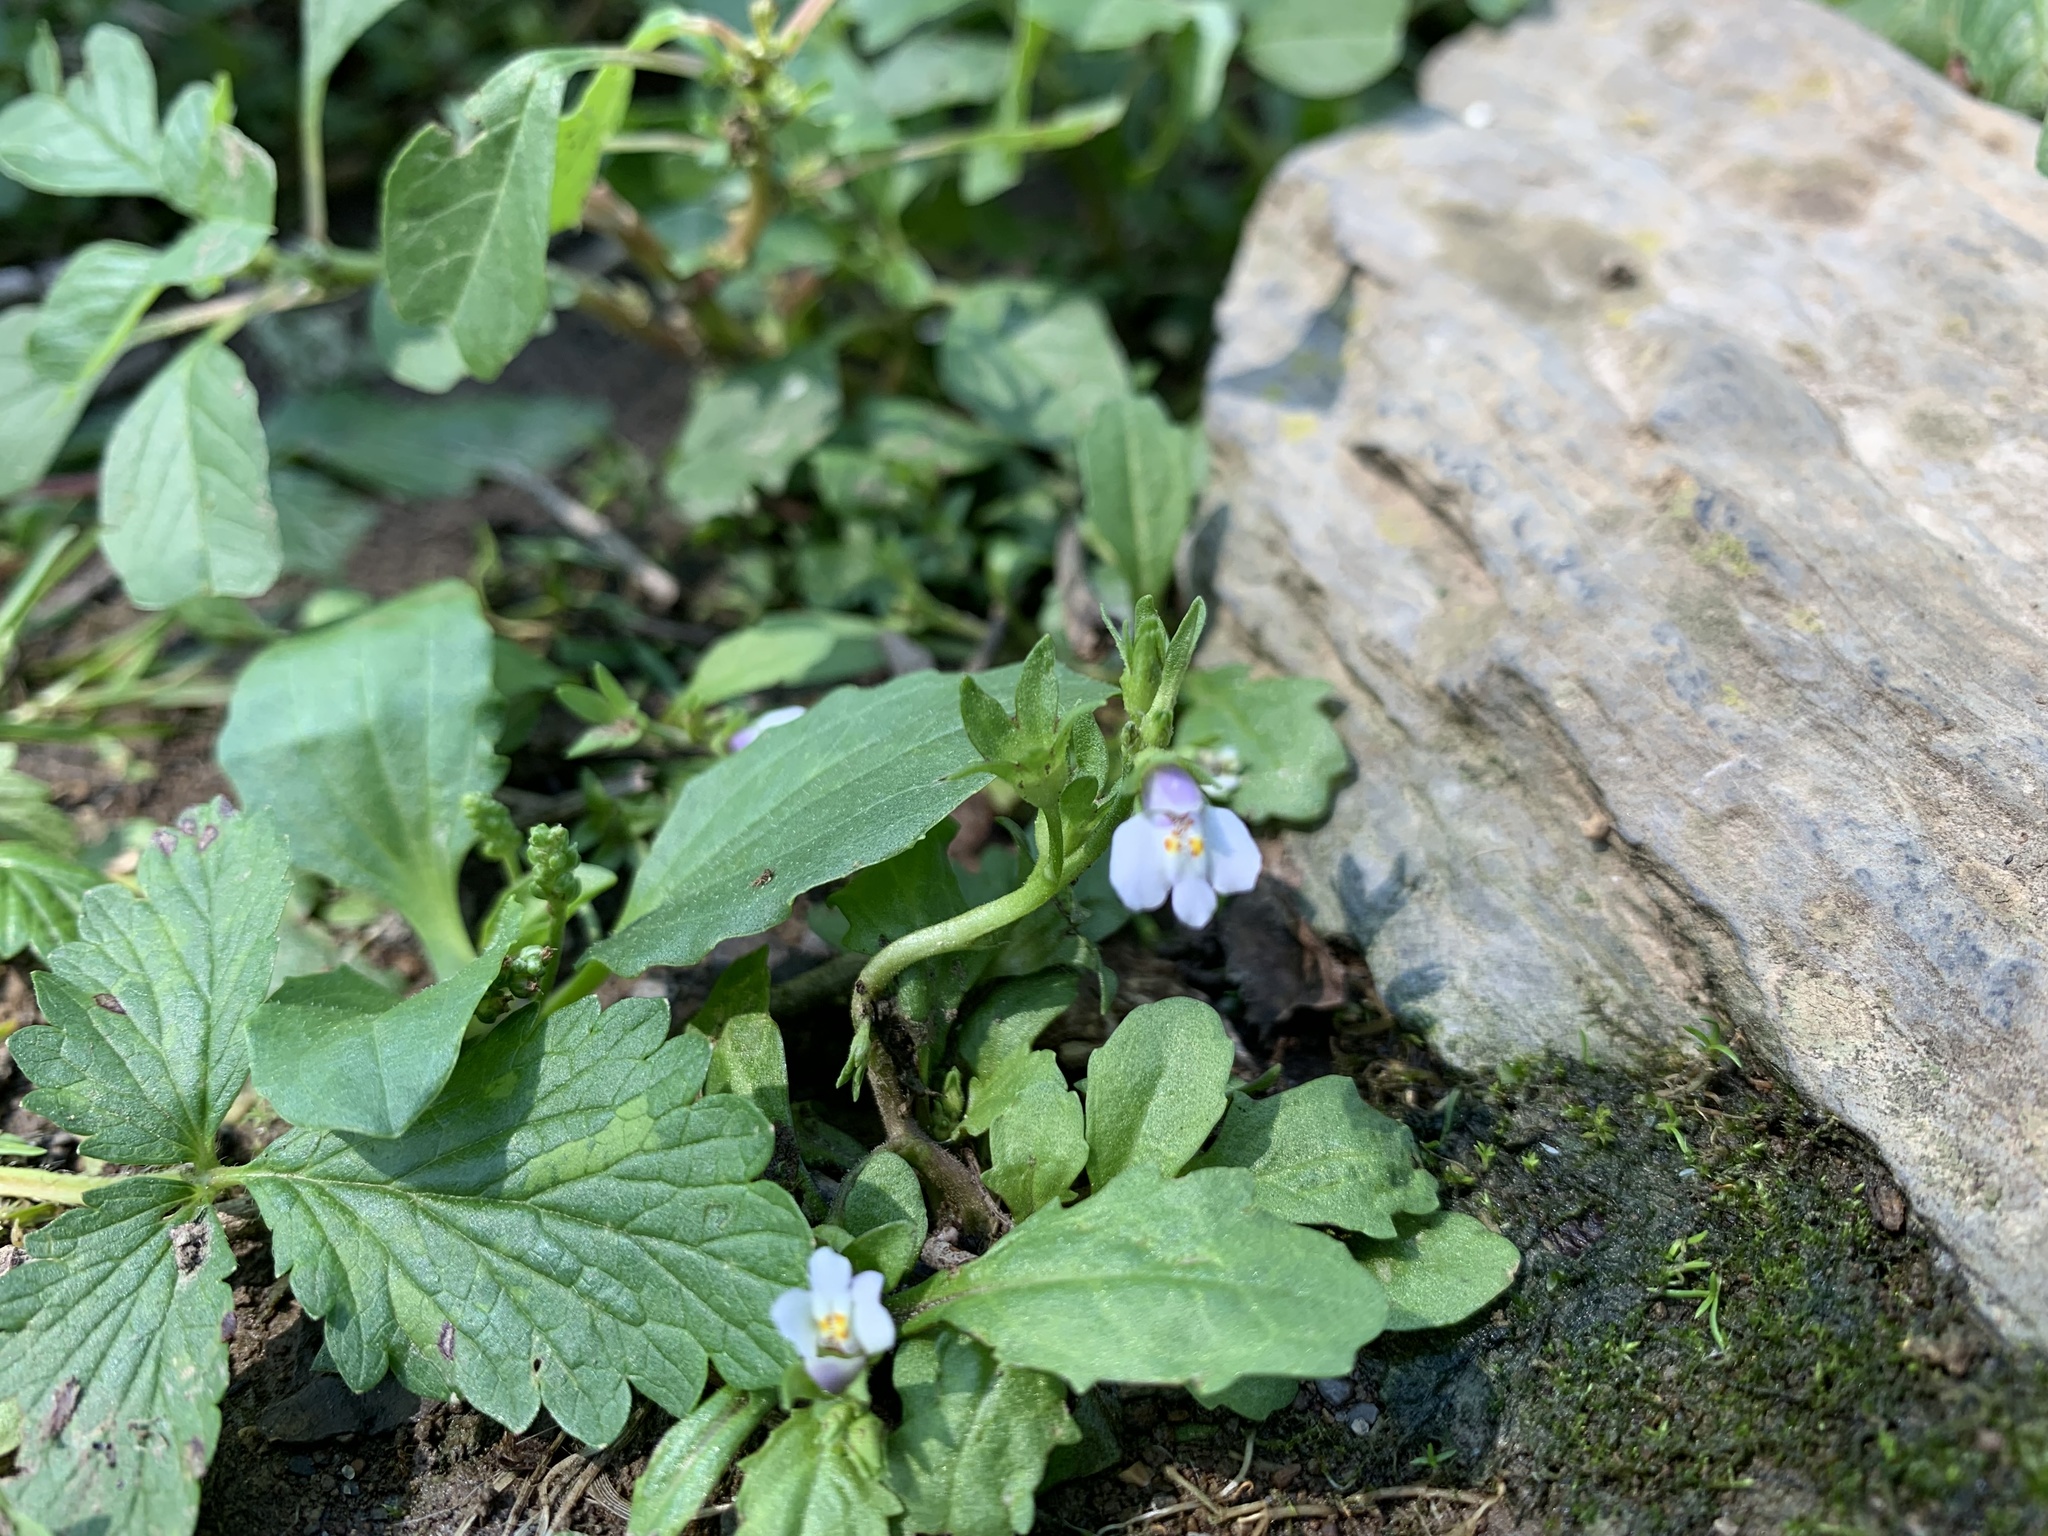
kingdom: Plantae
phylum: Tracheophyta
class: Magnoliopsida
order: Lamiales
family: Mazaceae
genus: Mazus
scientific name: Mazus pumilus
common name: Japanese mazus
